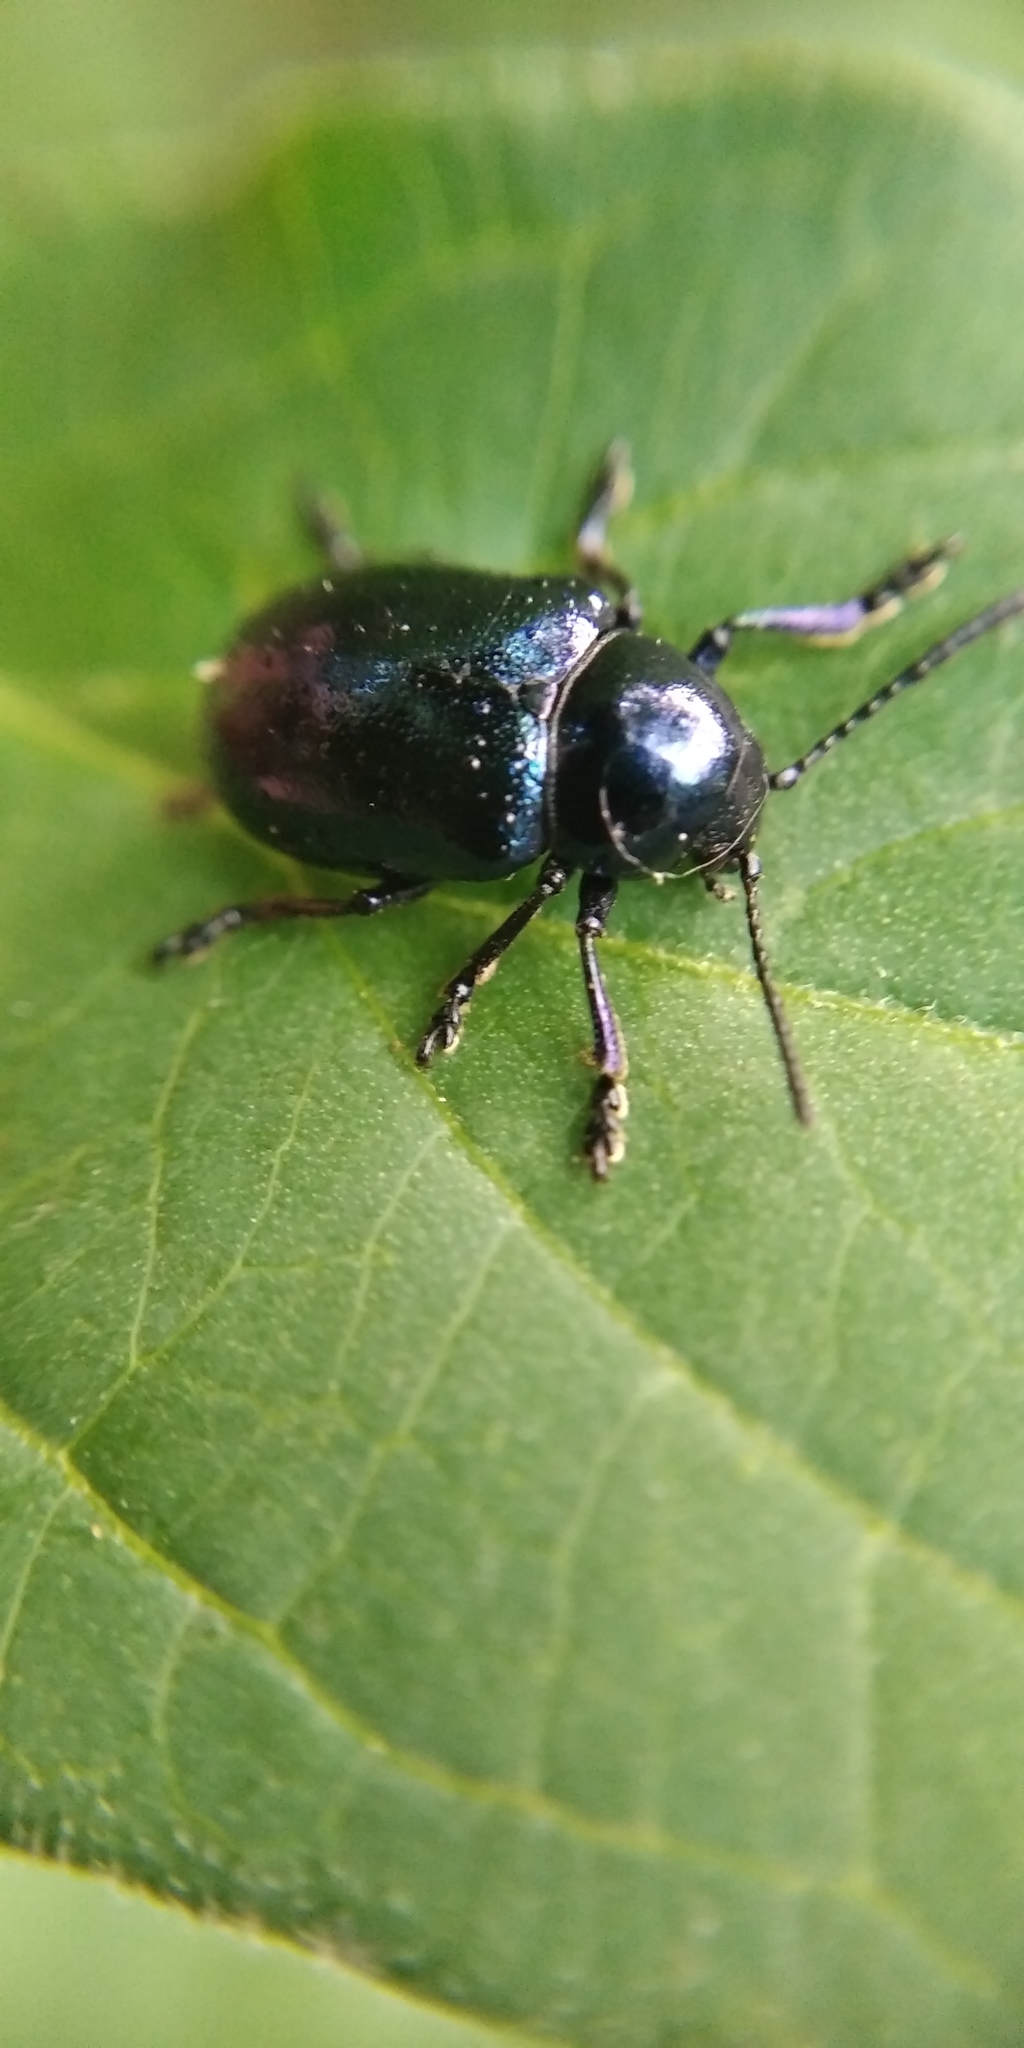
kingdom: Animalia
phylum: Arthropoda
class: Insecta
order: Coleoptera
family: Chrysomelidae
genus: Chrysochus
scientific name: Chrysochus asclepiadeus
